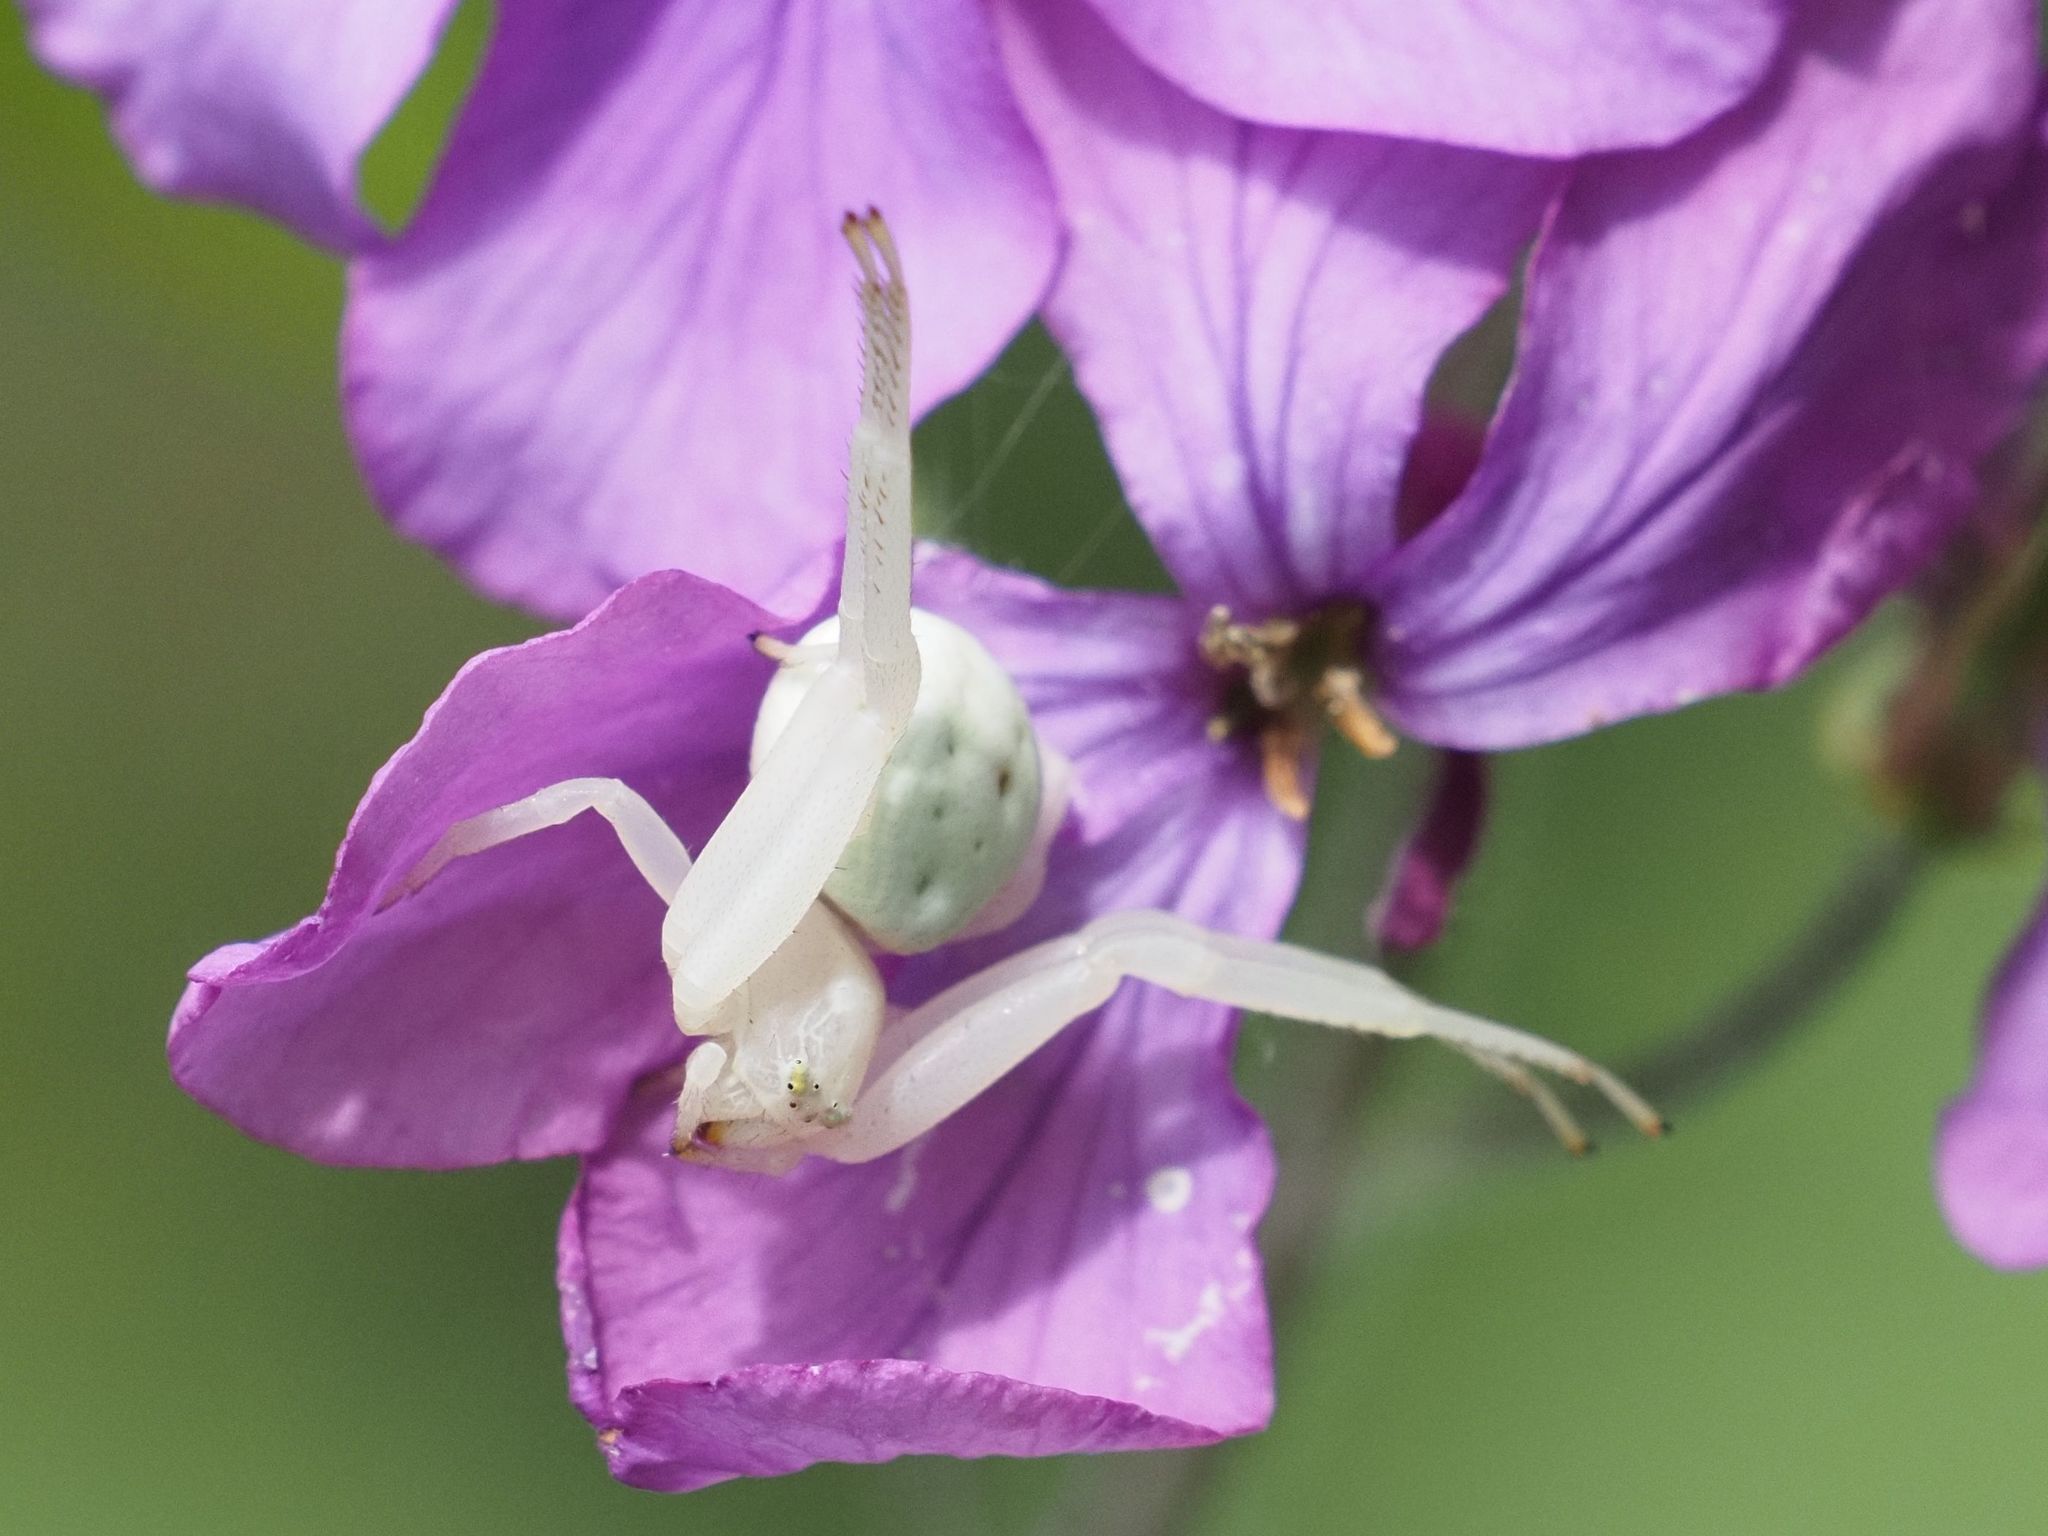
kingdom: Animalia
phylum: Arthropoda
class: Arachnida
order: Araneae
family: Thomisidae
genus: Misumena
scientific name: Misumena vatia
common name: Goldenrod crab spider
